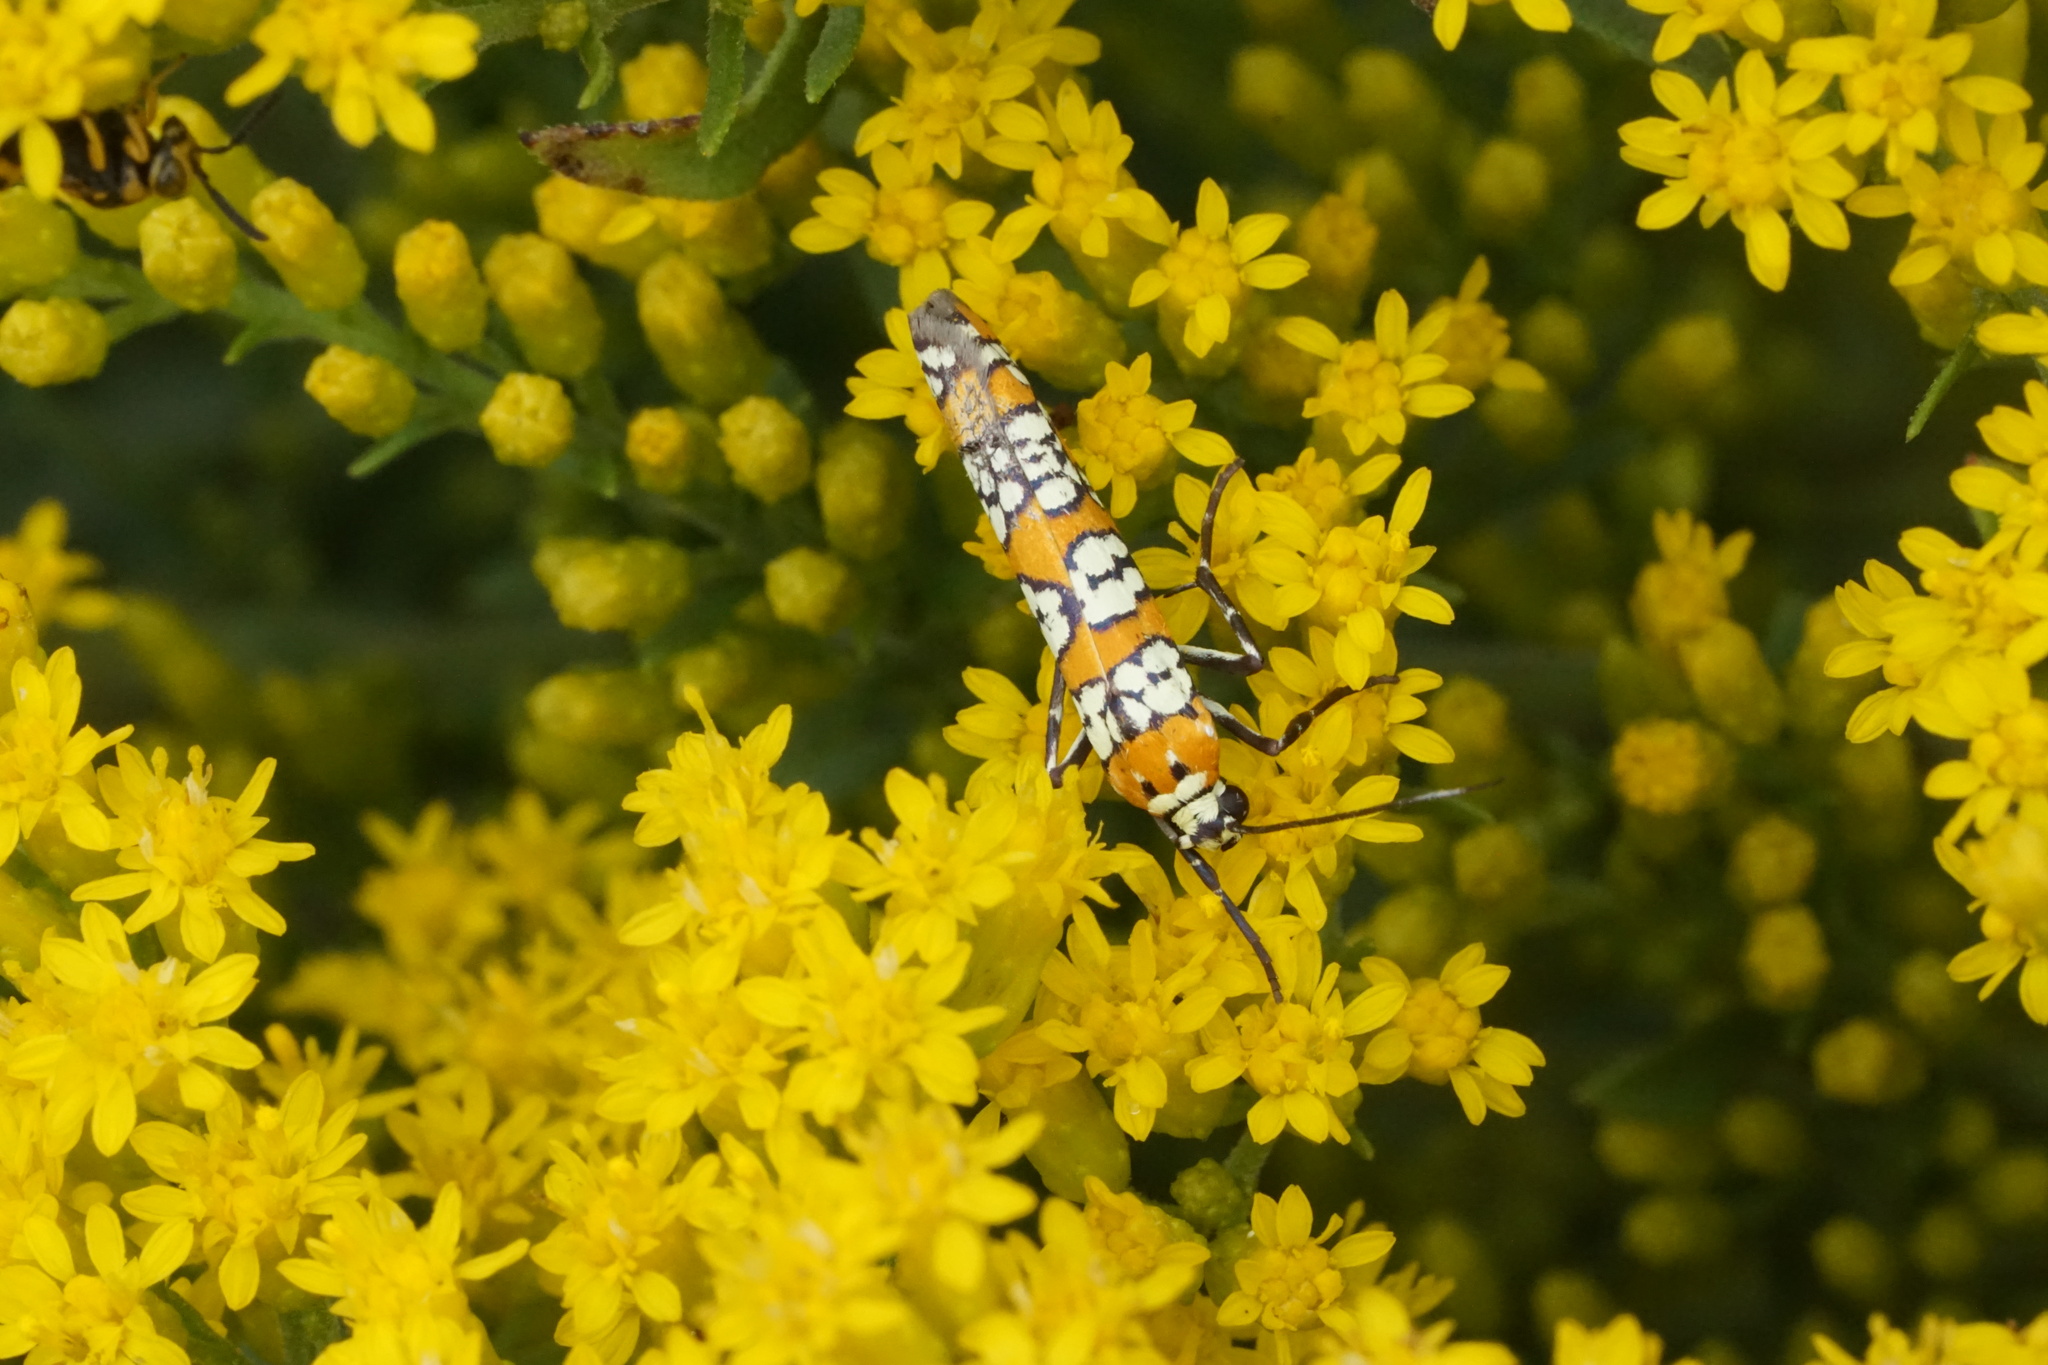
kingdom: Animalia
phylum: Arthropoda
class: Insecta
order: Lepidoptera
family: Attevidae
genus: Atteva
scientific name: Atteva punctella
